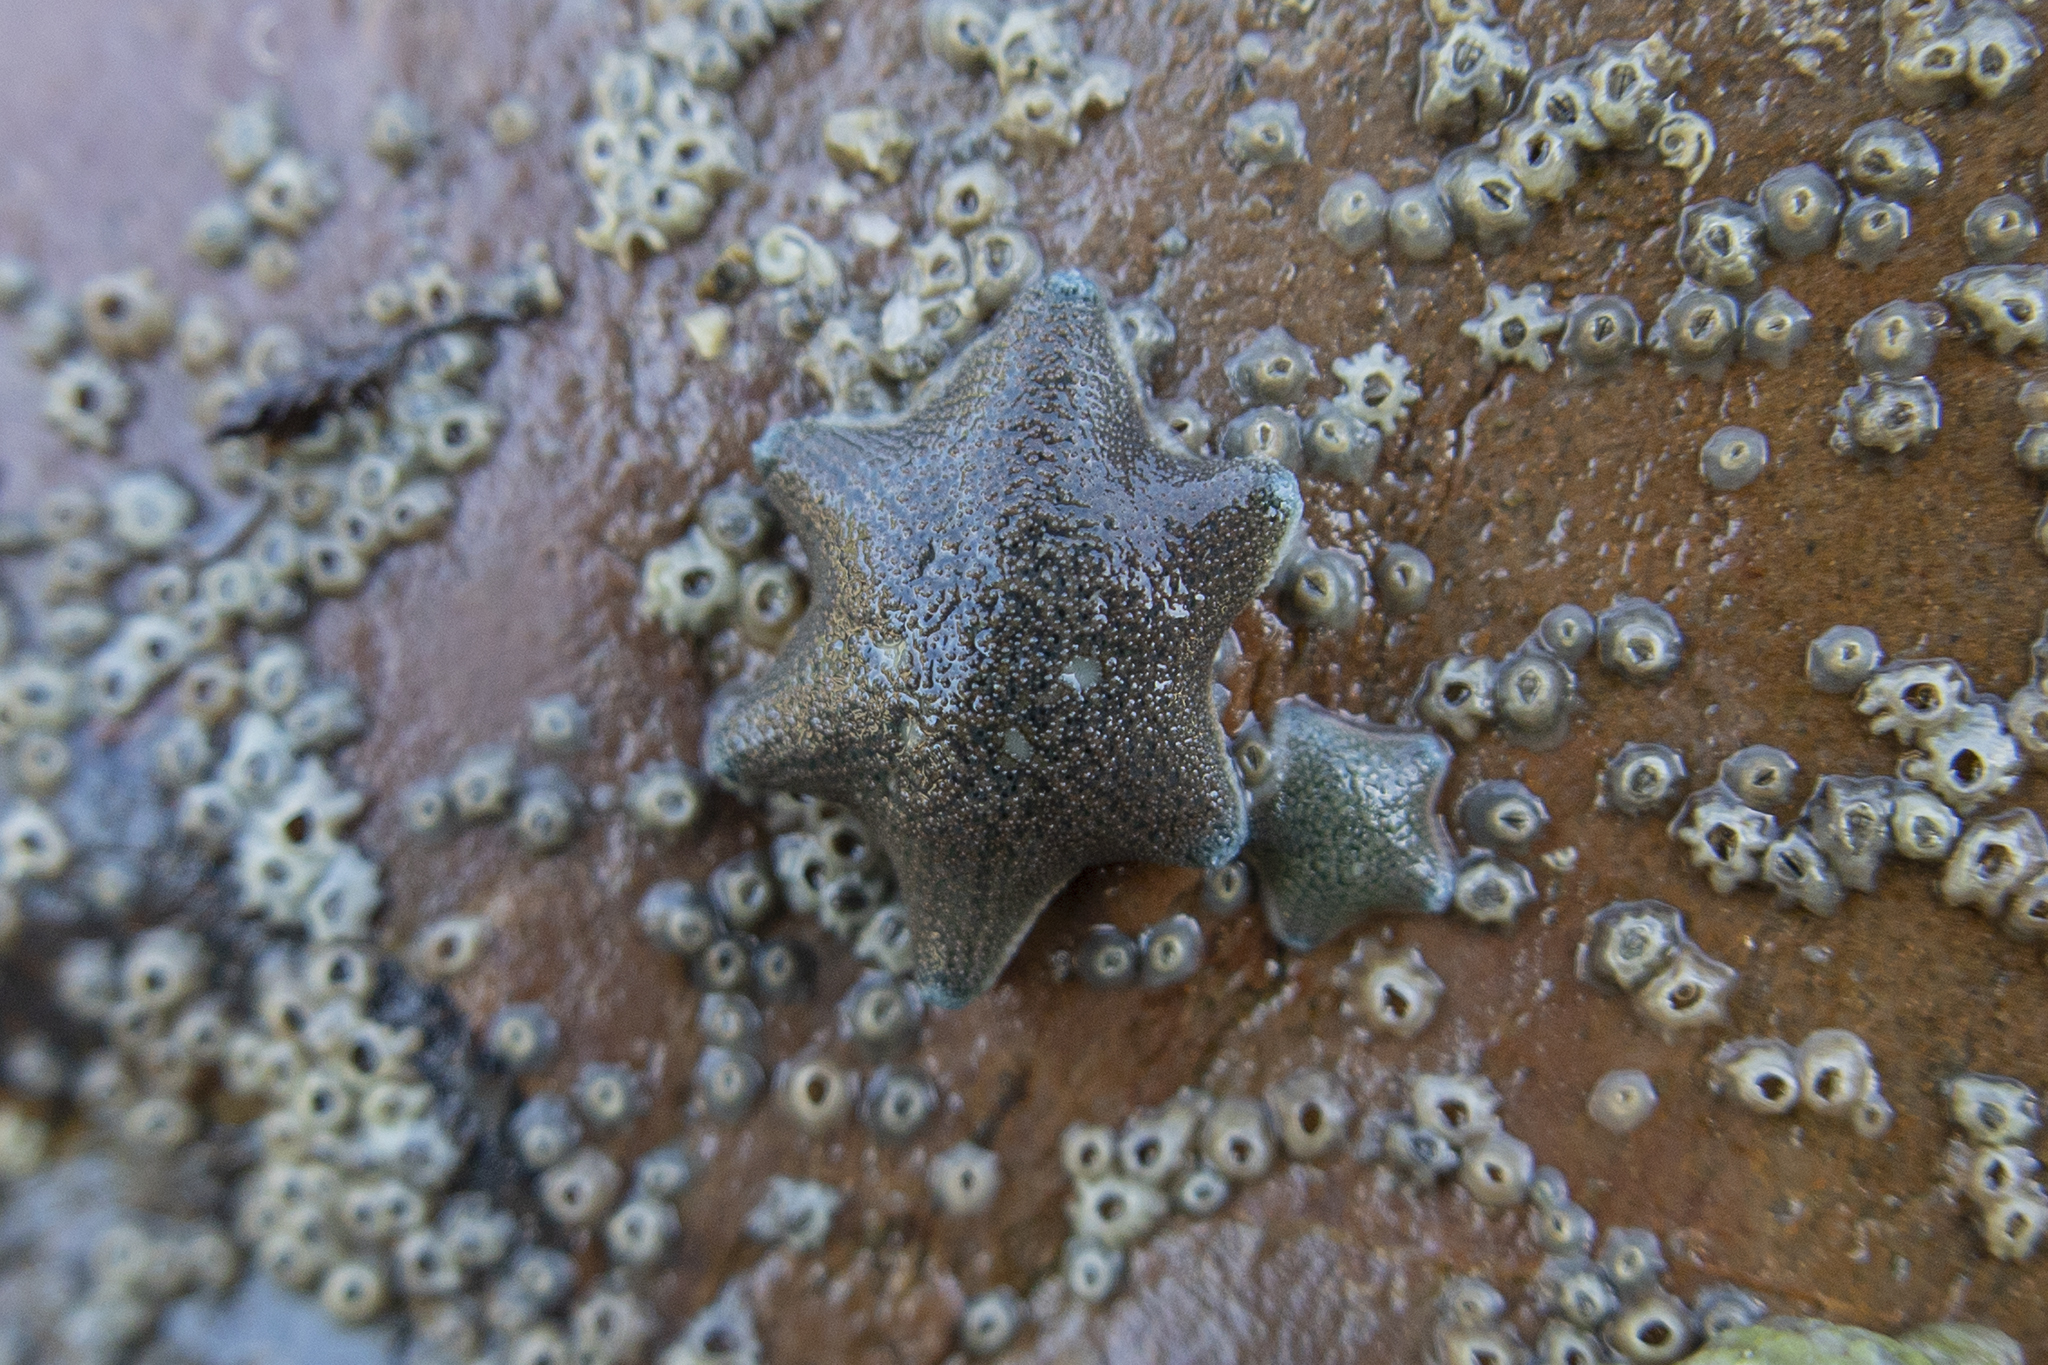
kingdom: Animalia
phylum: Echinodermata
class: Asteroidea
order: Valvatida
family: Asterinidae
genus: Patiriella
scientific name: Patiriella regularis
